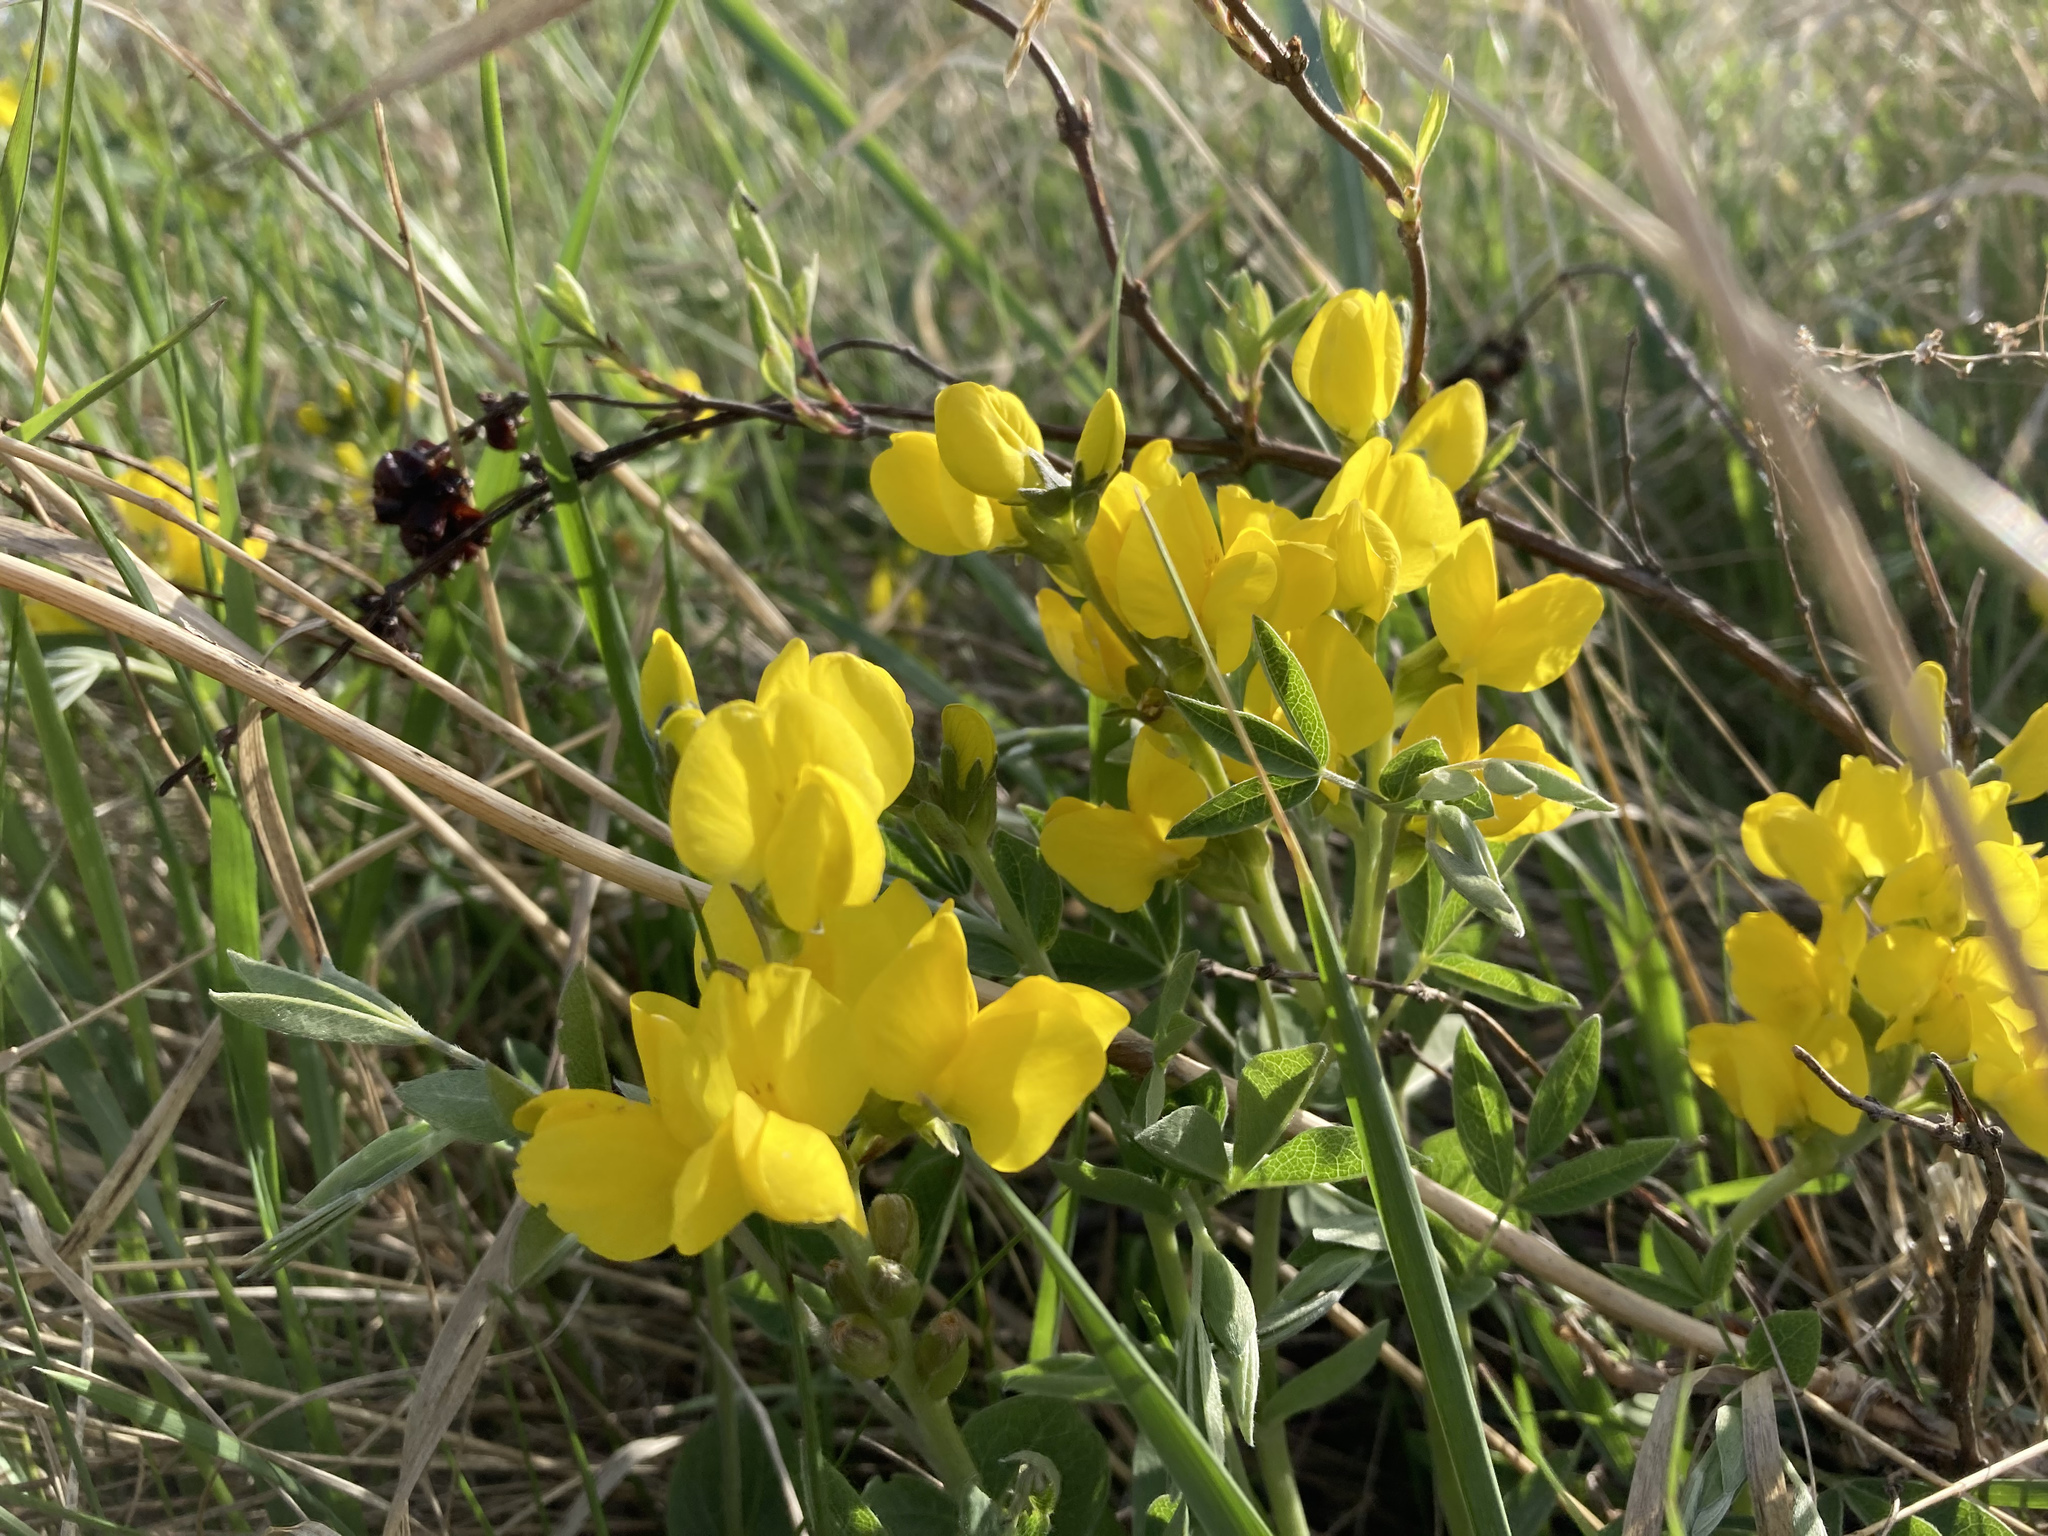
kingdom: Plantae
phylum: Tracheophyta
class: Magnoliopsida
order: Fabales
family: Fabaceae
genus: Thermopsis
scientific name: Thermopsis rhombifolia
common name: Circle-pod-pea
